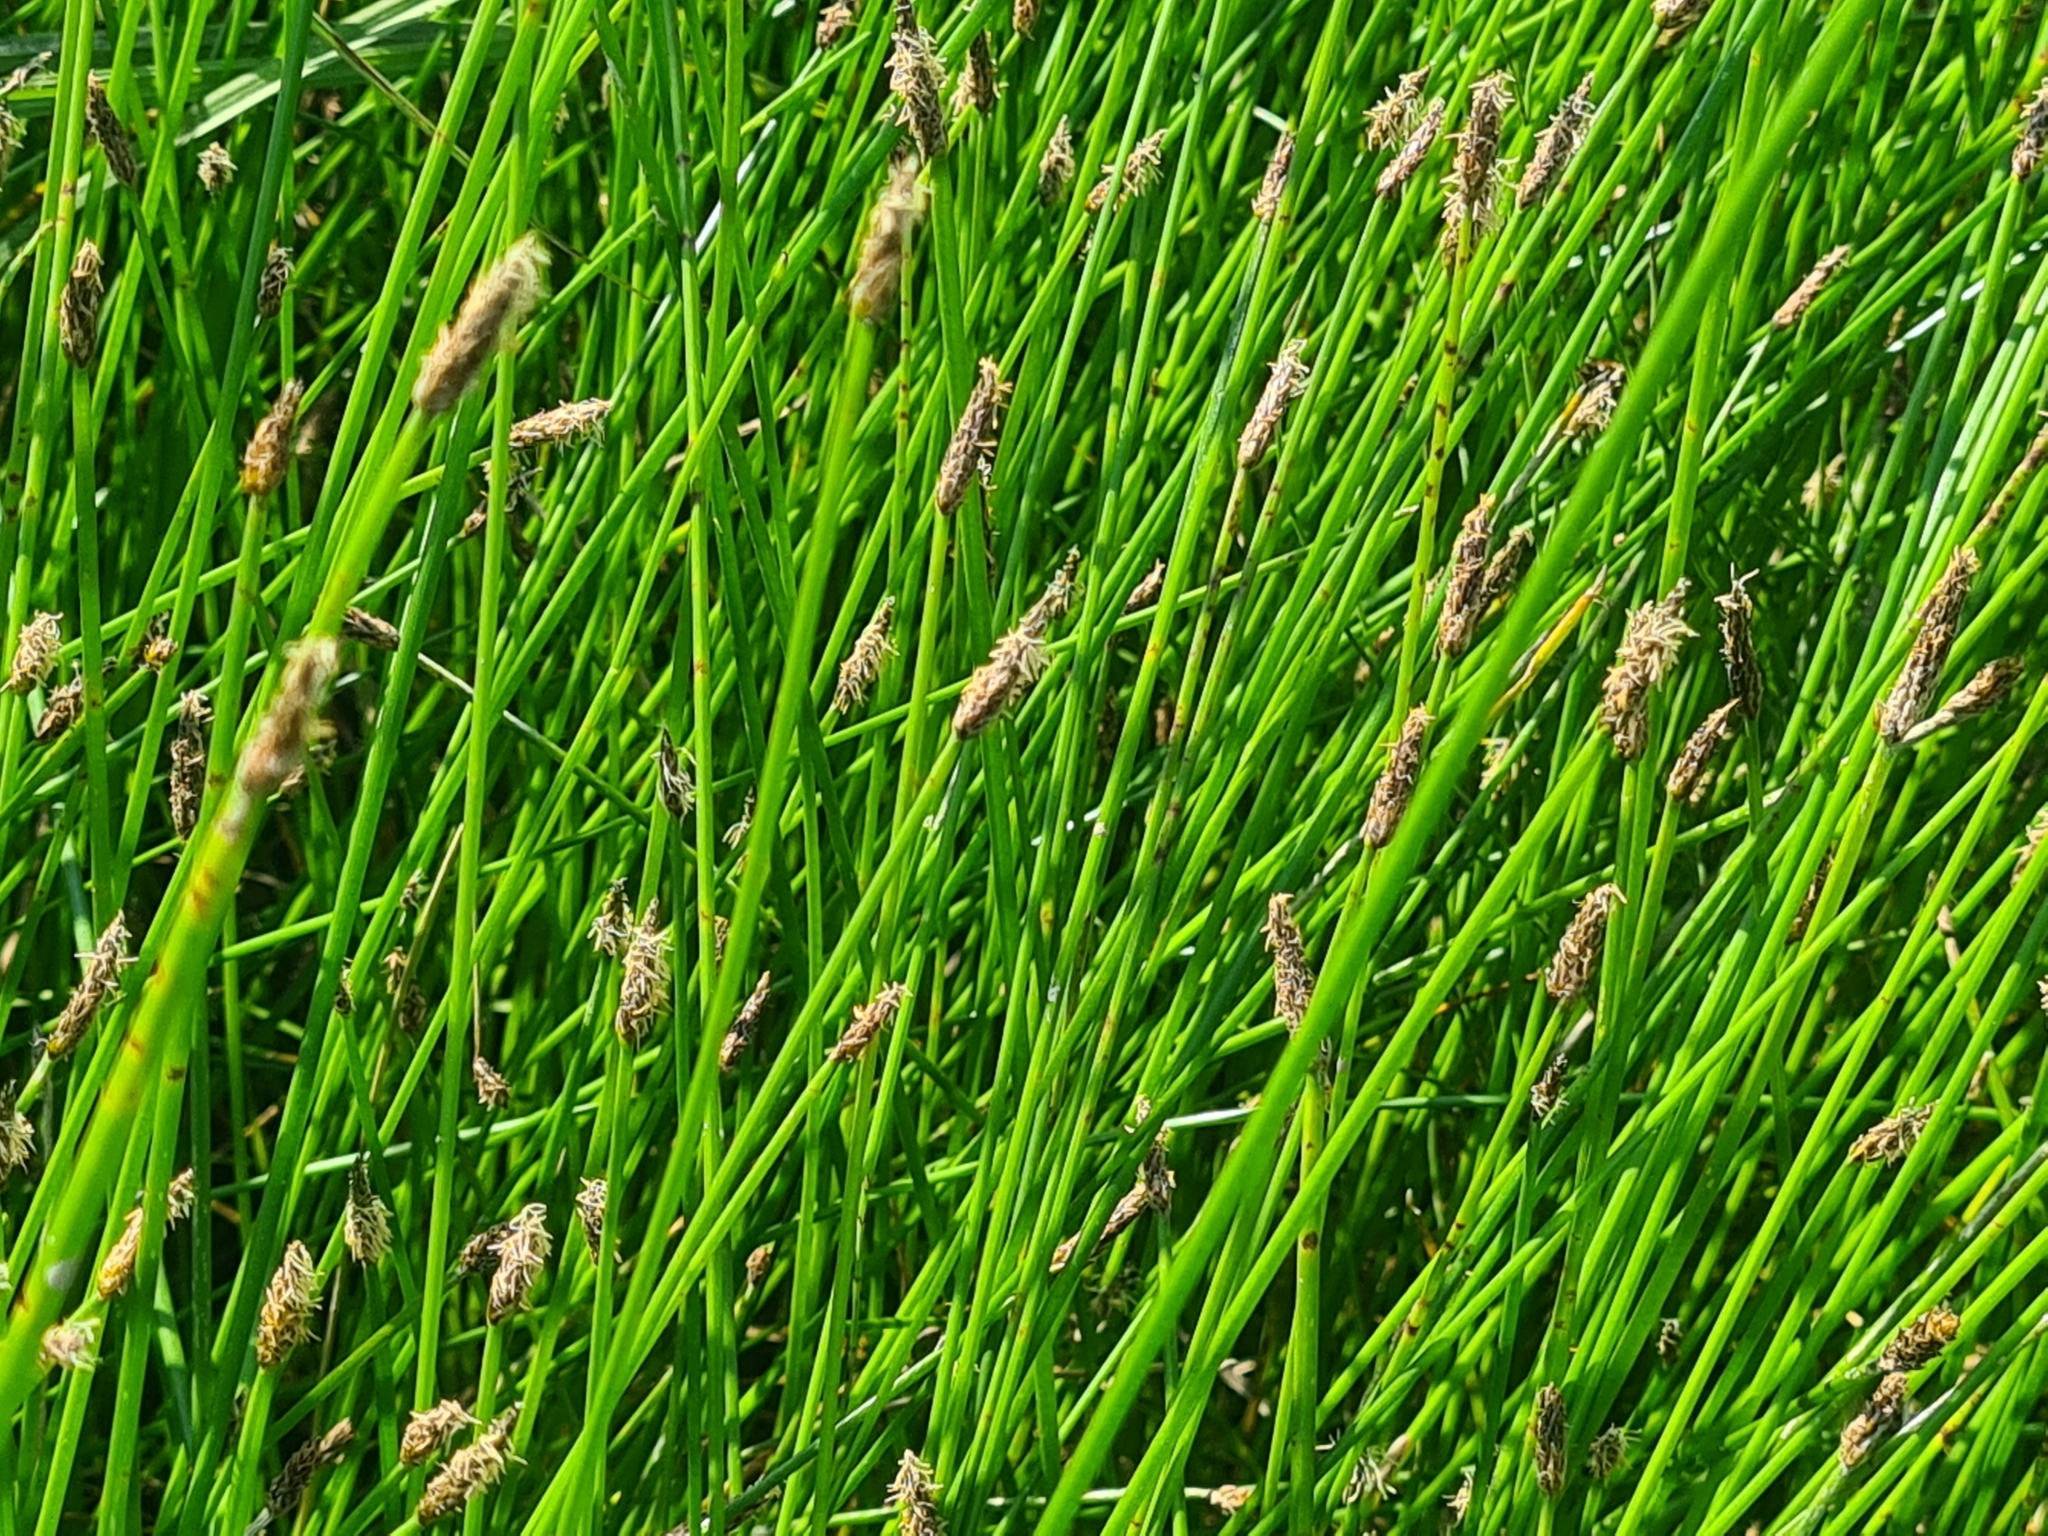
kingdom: Plantae
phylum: Tracheophyta
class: Liliopsida
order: Poales
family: Cyperaceae
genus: Eleocharis
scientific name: Eleocharis palustris
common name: Common spike-rush
